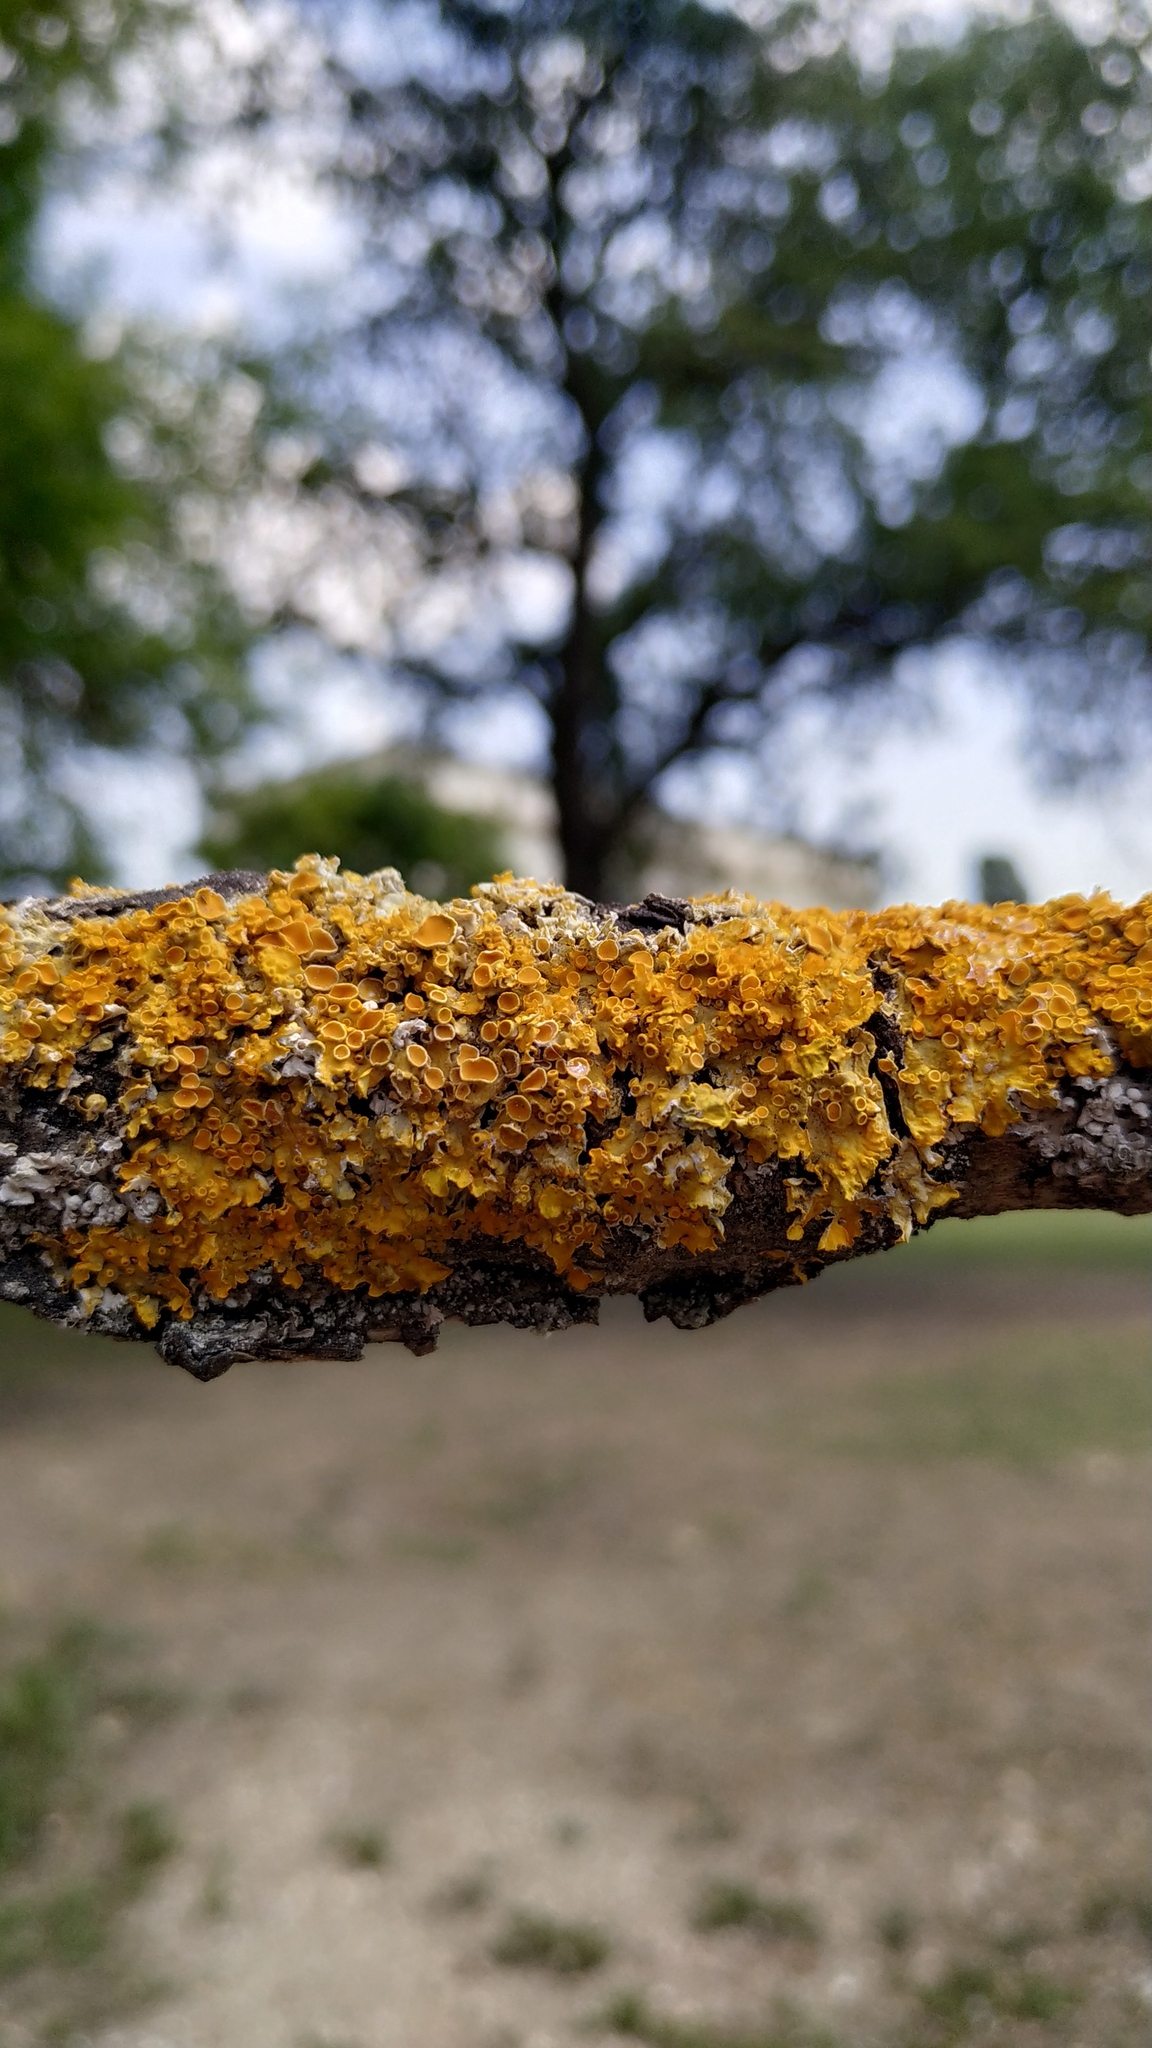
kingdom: Fungi
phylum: Ascomycota
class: Lecanoromycetes
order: Teloschistales
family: Teloschistaceae
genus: Xanthoria
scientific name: Xanthoria parietina
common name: Common orange lichen
